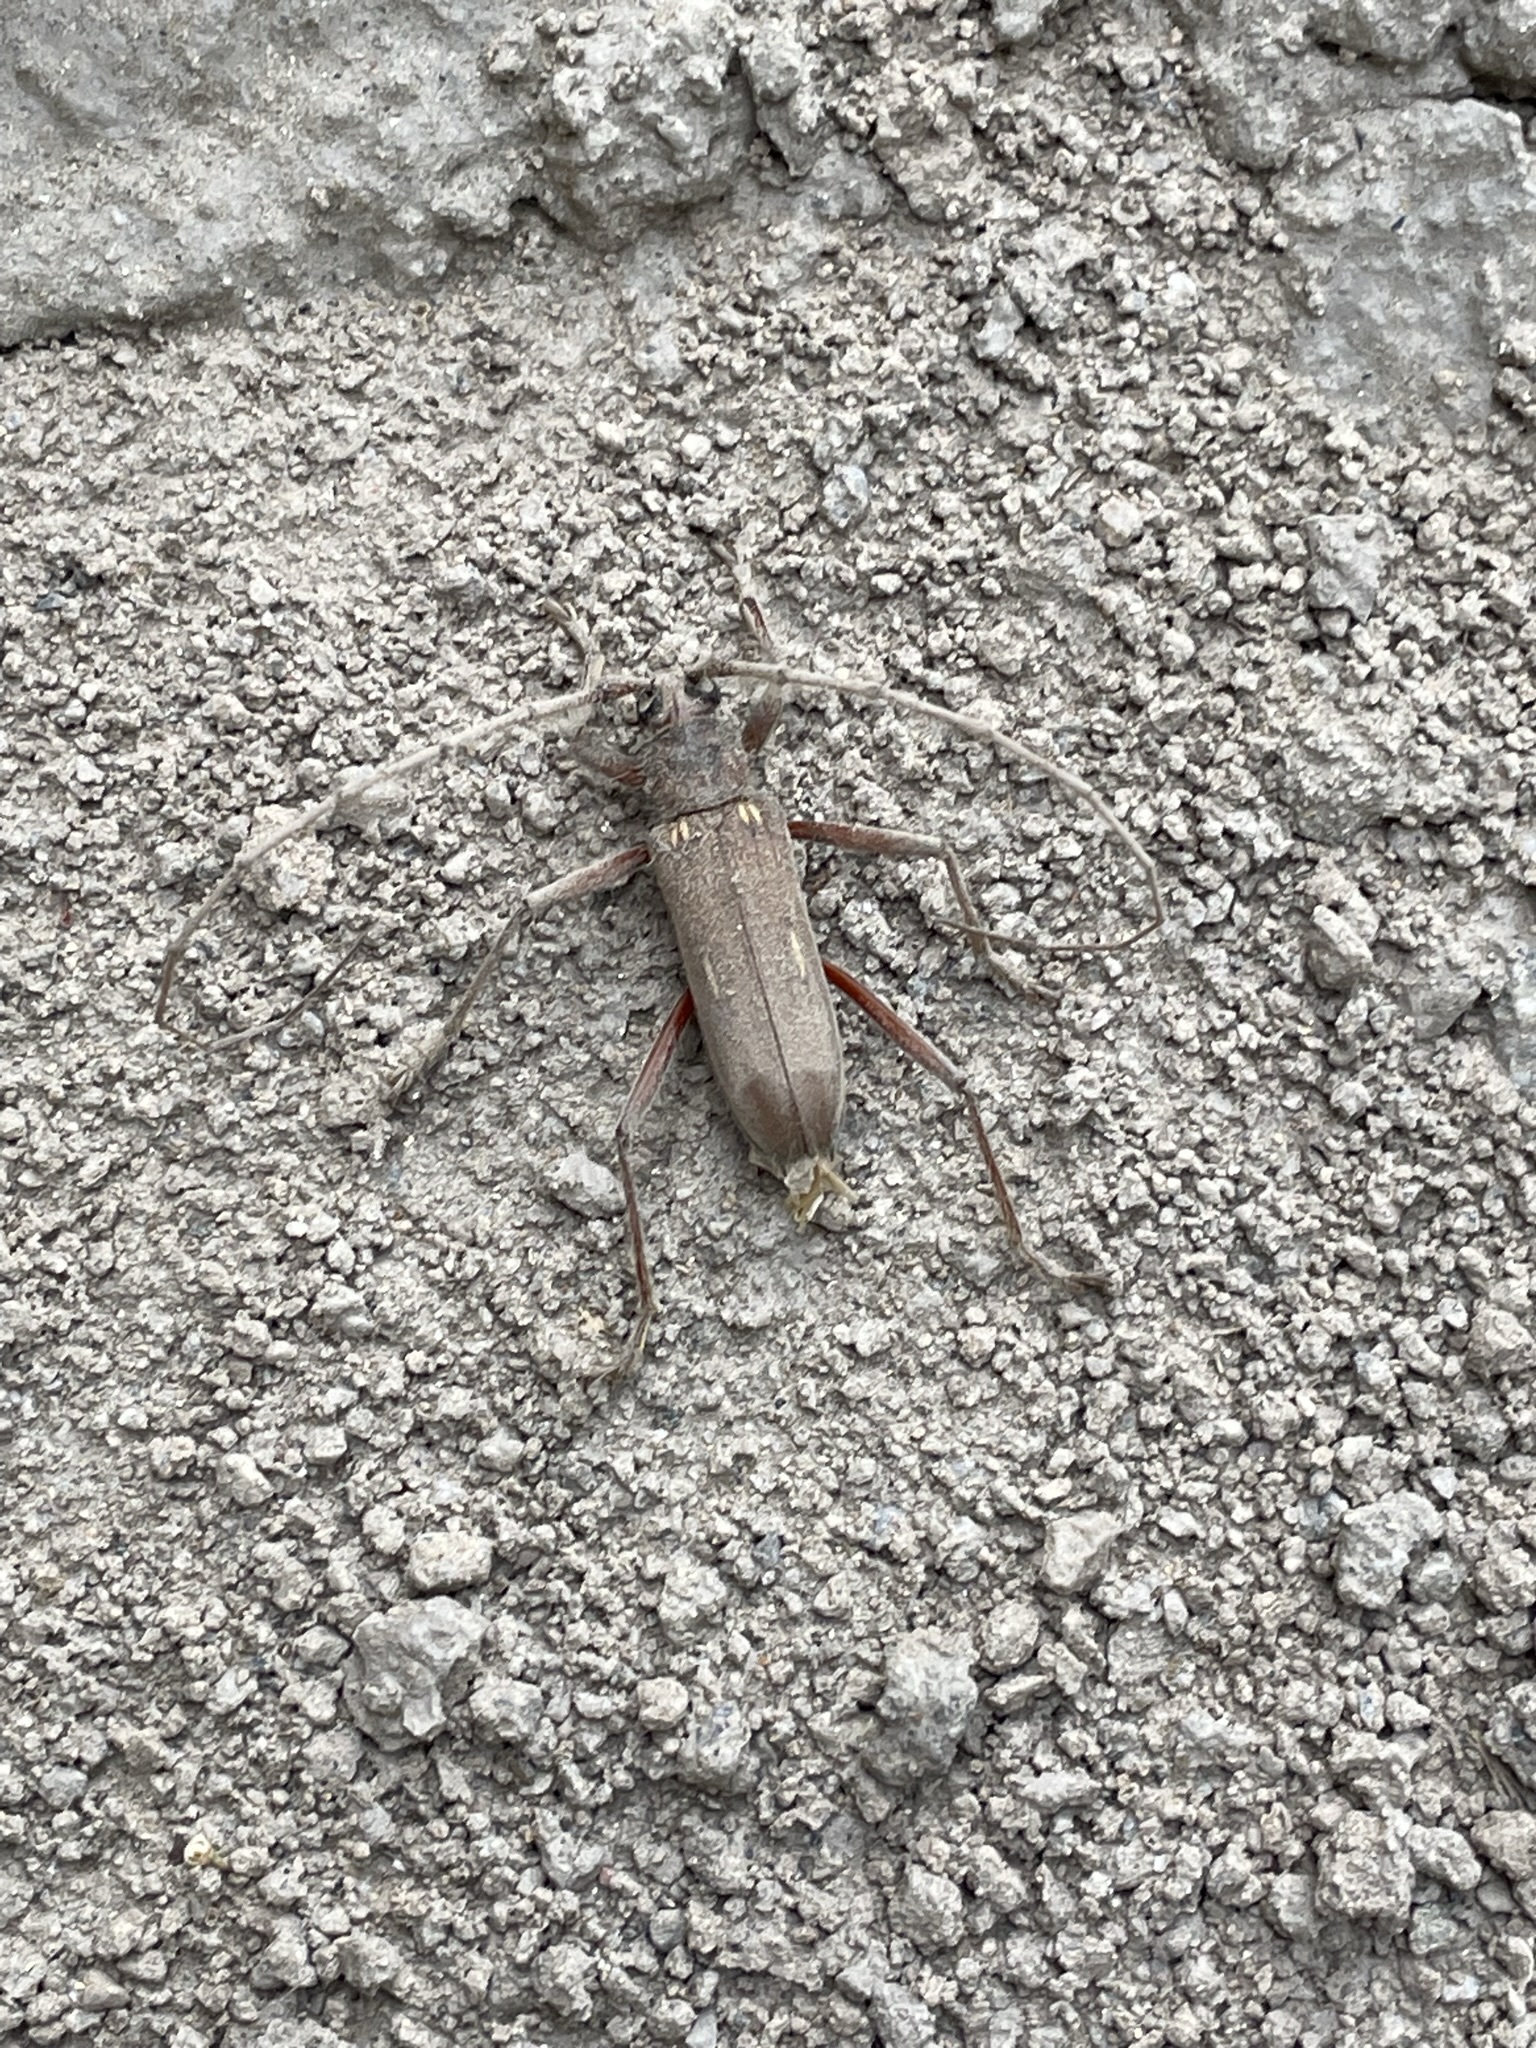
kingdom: Animalia
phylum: Arthropoda
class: Insecta
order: Coleoptera
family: Cerambycidae
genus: Eburia
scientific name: Eburia pilosa
